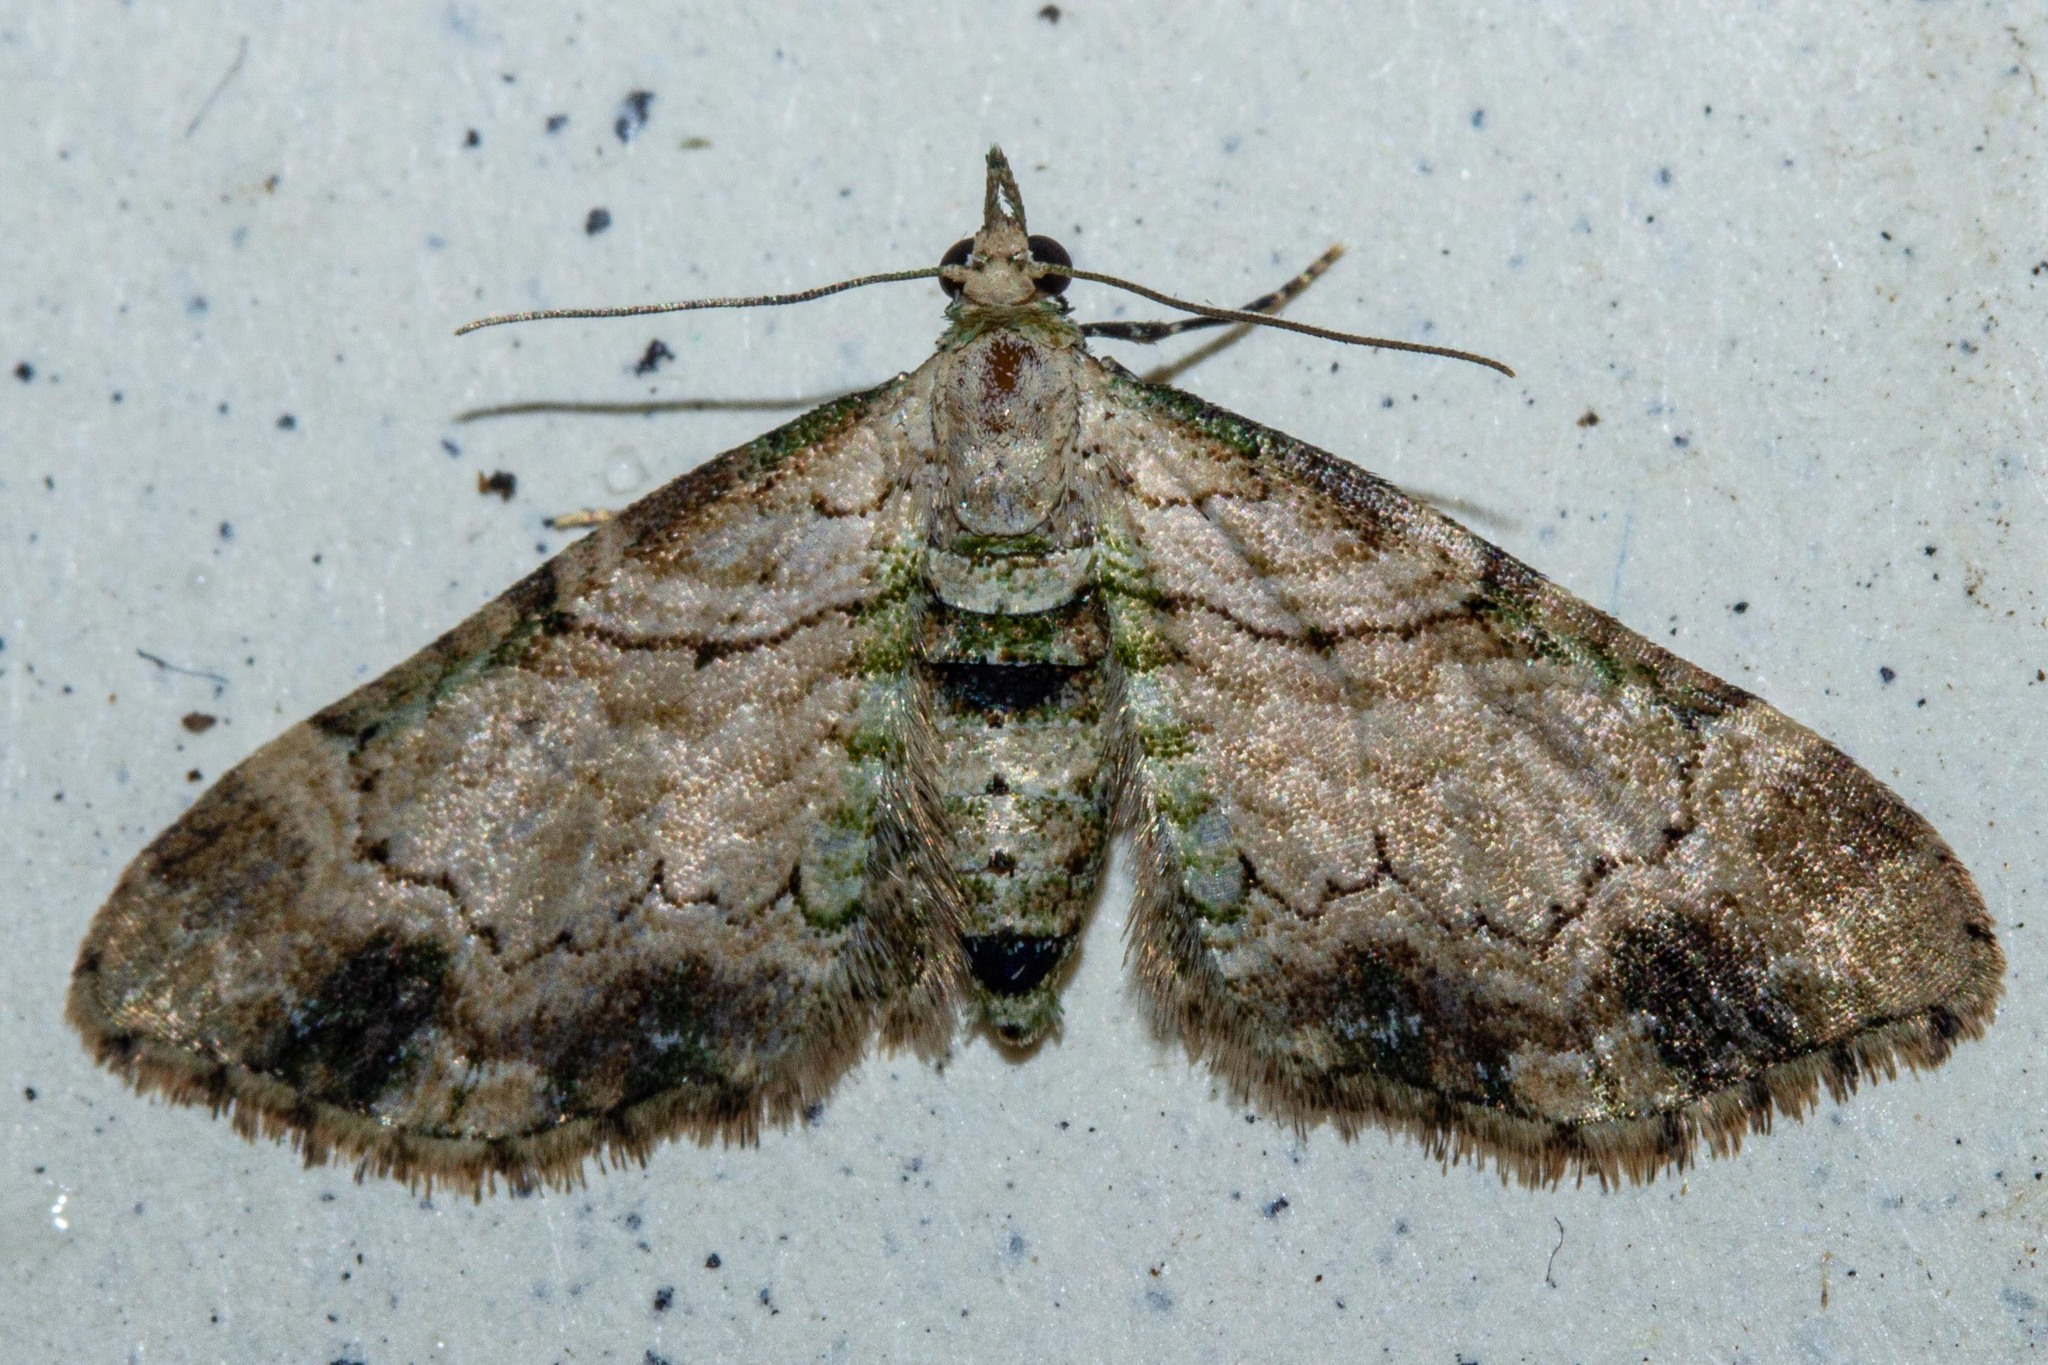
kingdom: Animalia
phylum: Arthropoda
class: Insecta
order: Lepidoptera
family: Geometridae
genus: Chloroclystis
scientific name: Chloroclystis
